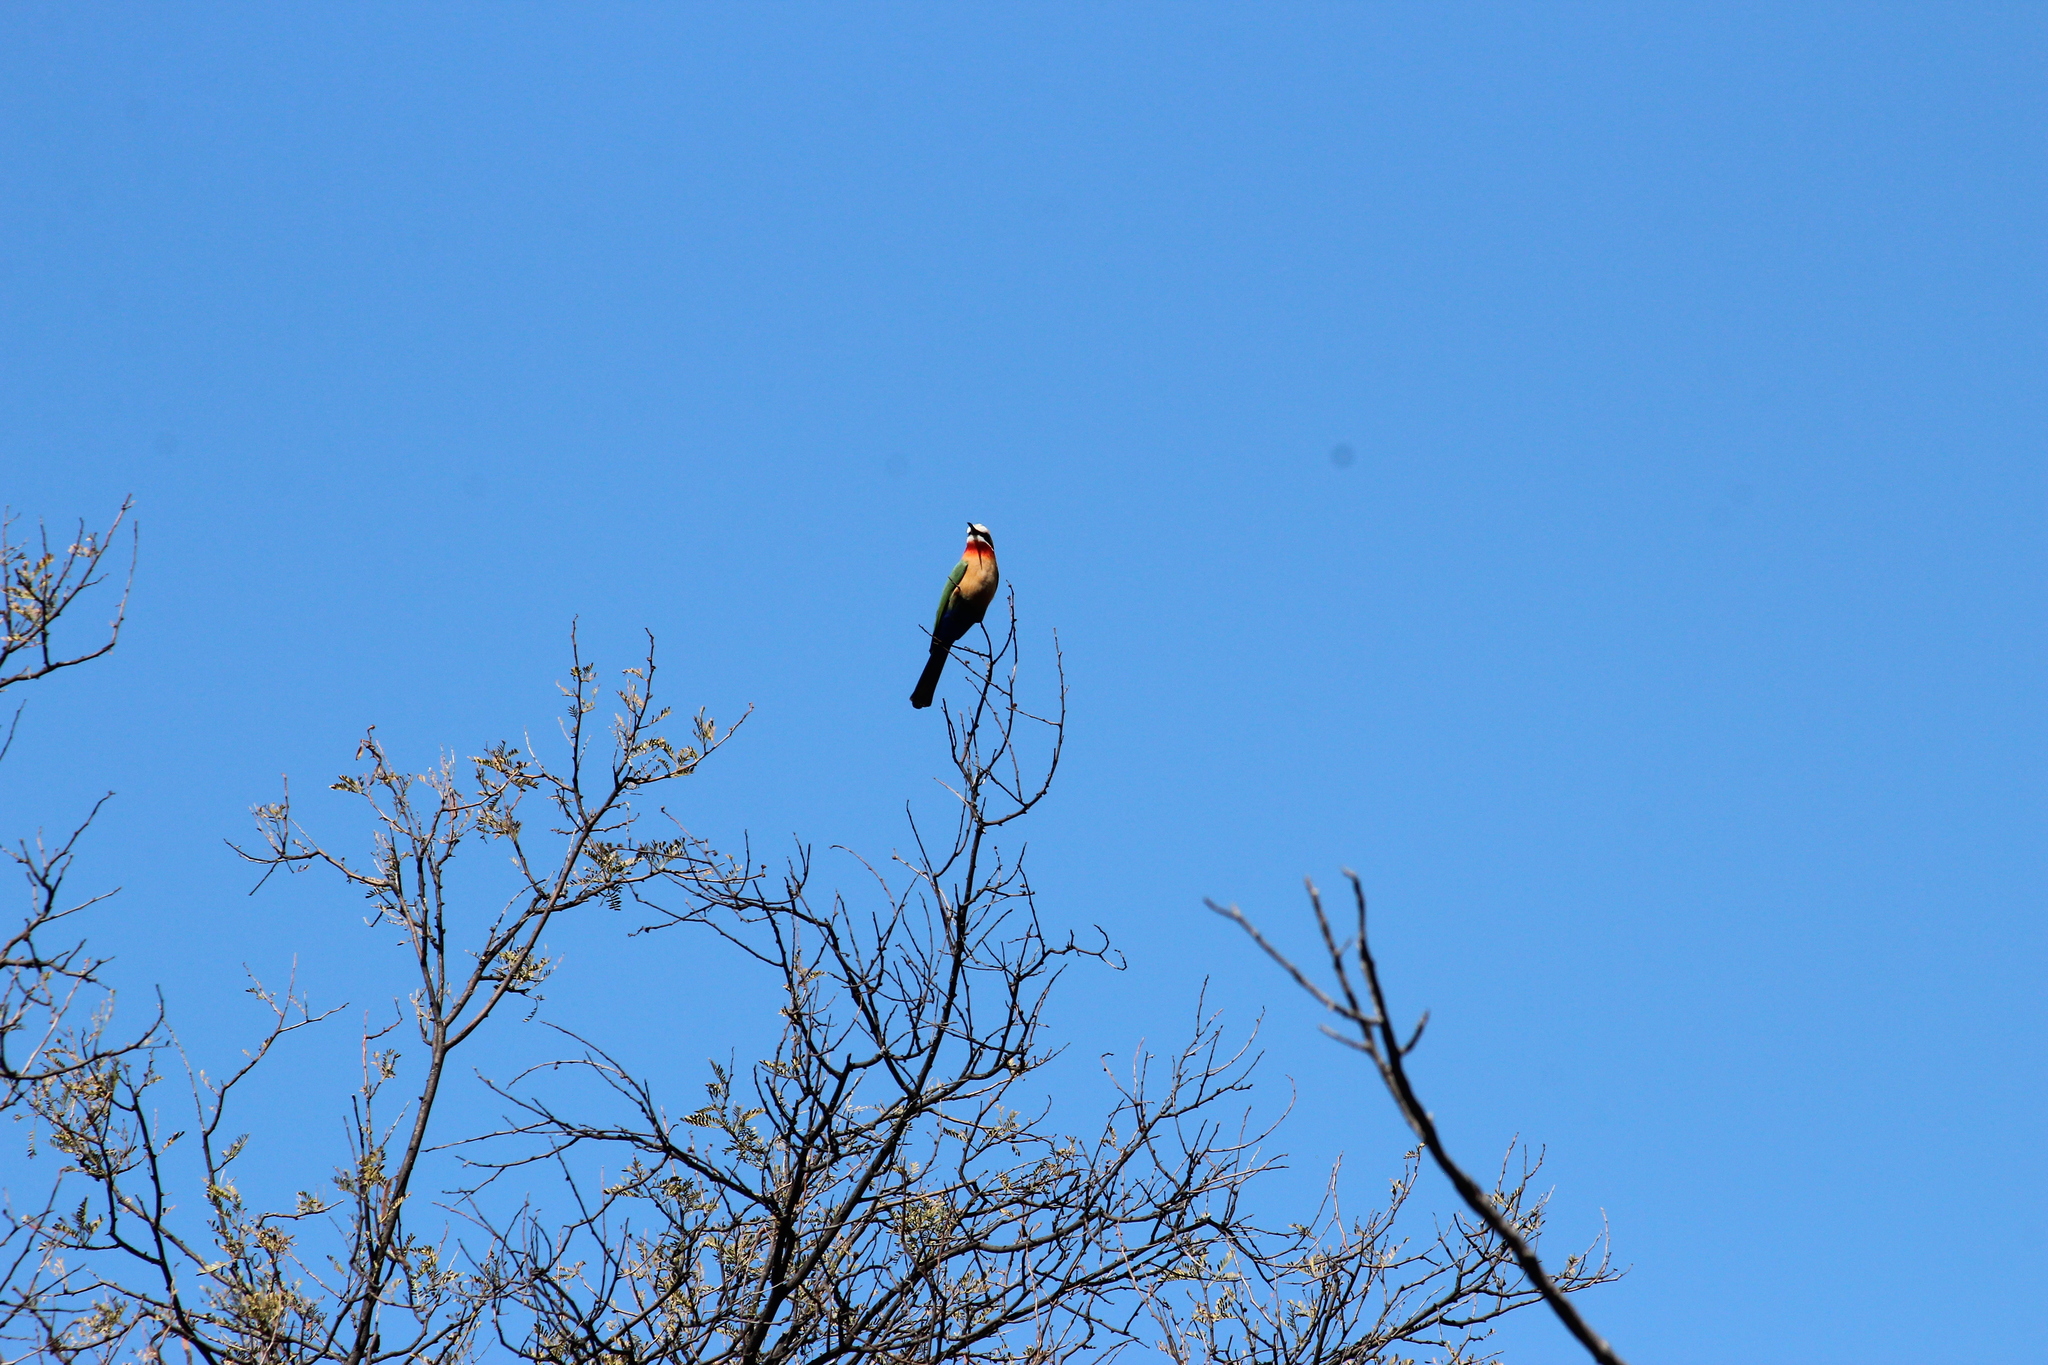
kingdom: Animalia
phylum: Chordata
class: Aves
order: Coraciiformes
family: Meropidae
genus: Merops
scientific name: Merops bullockoides
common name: White-fronted bee-eater
